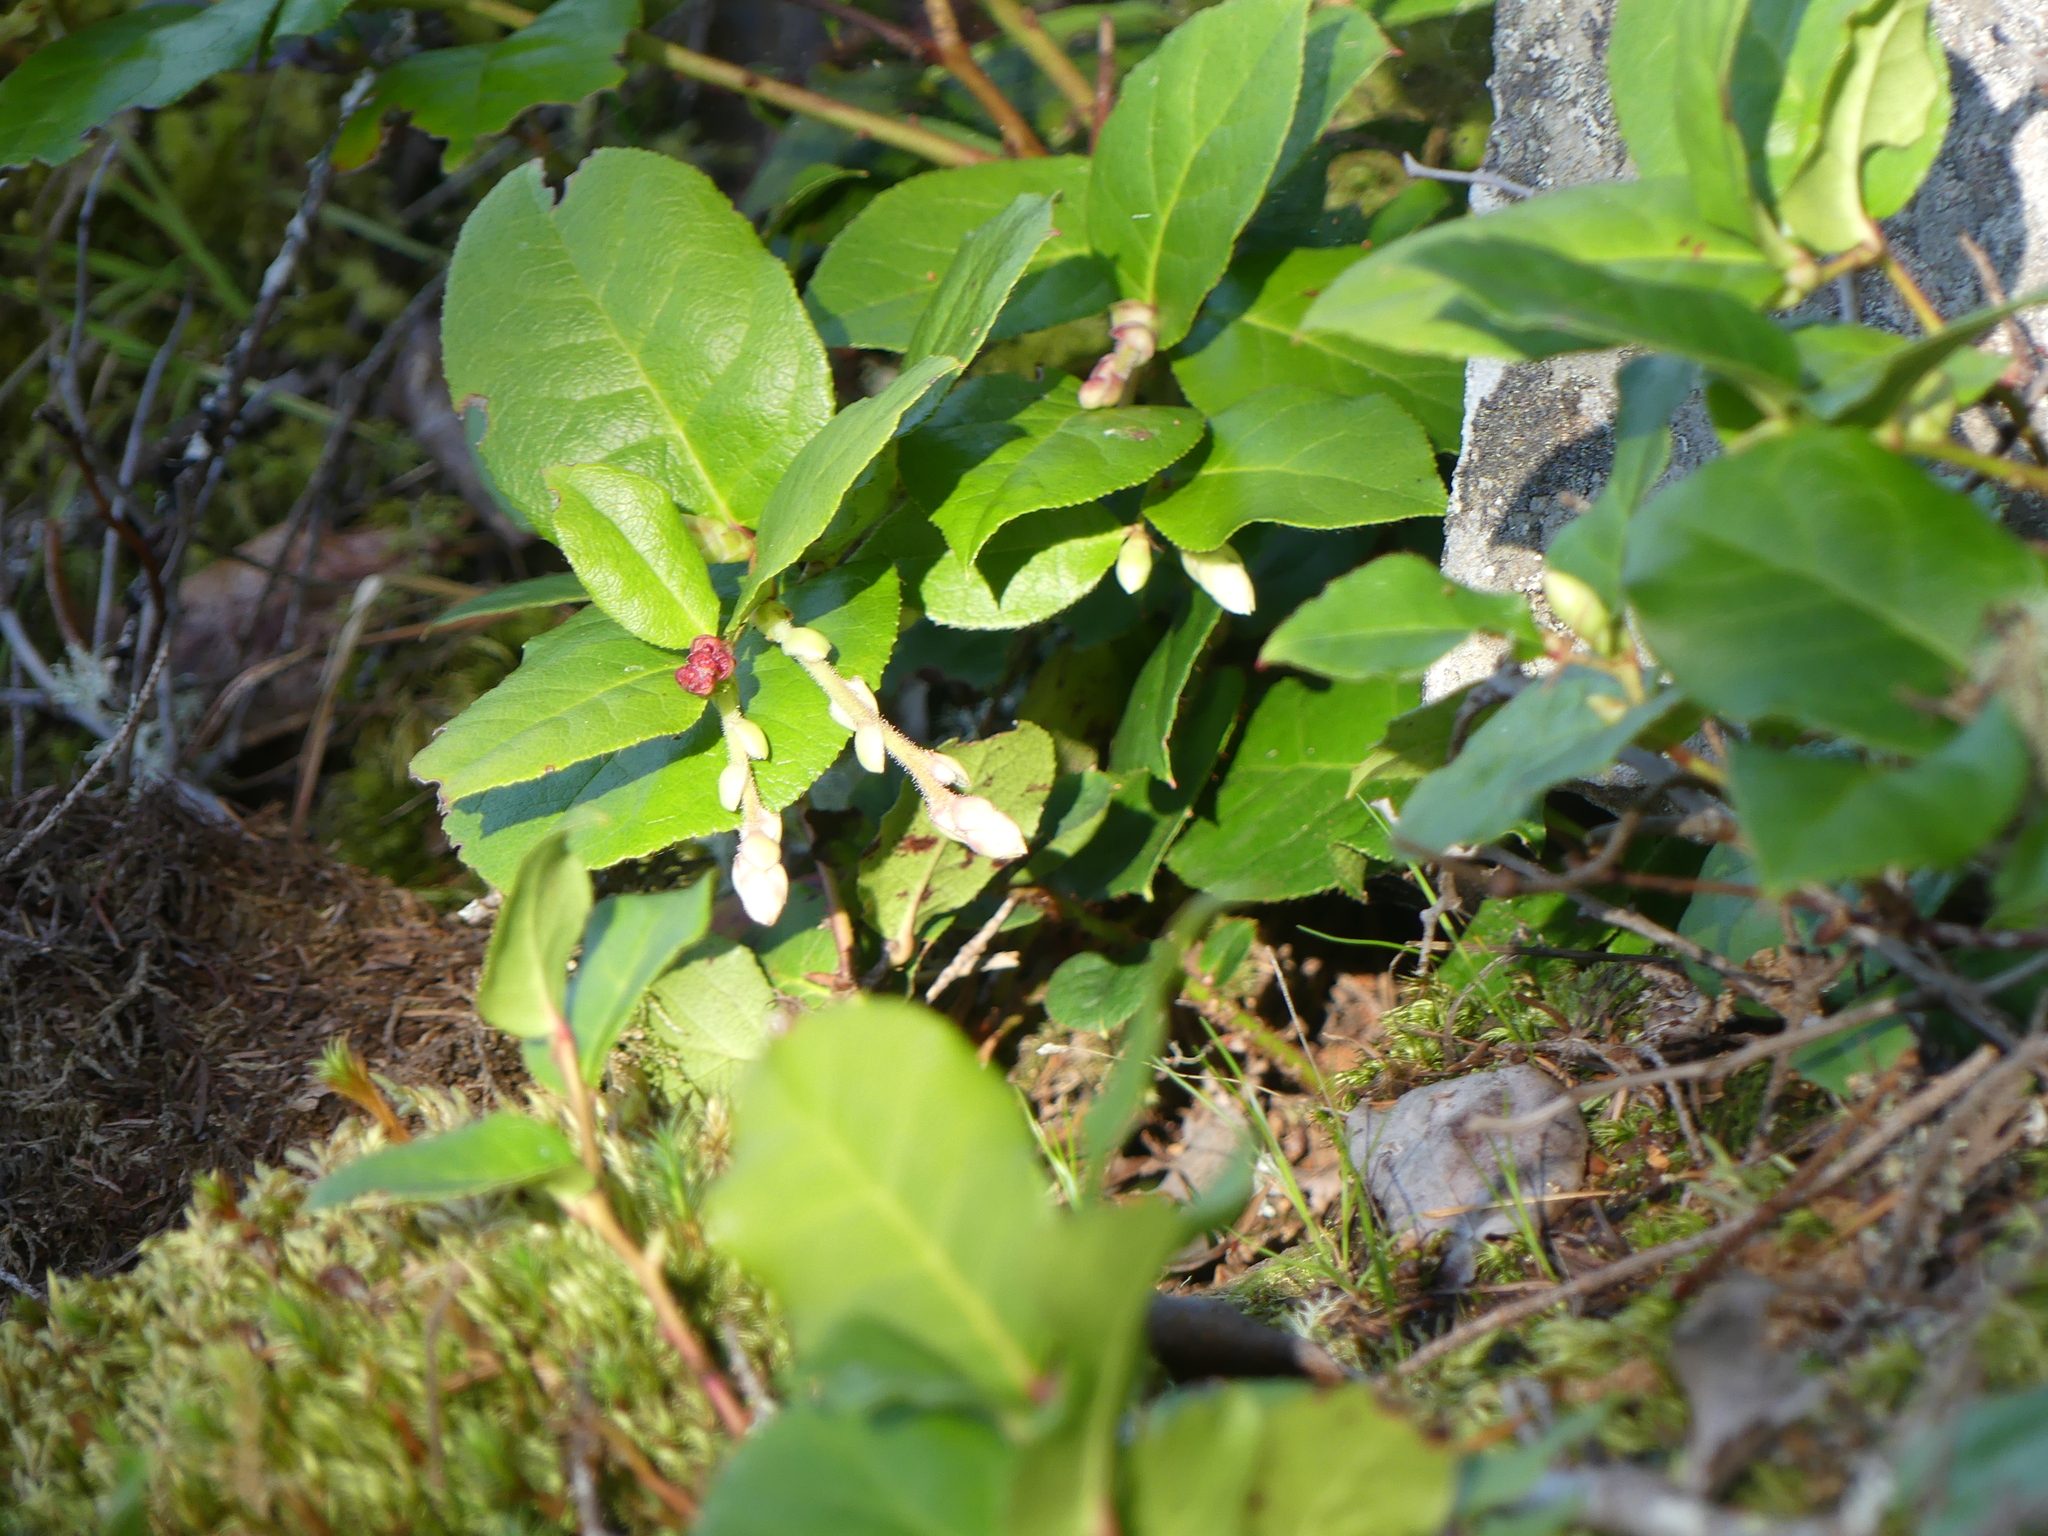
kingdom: Plantae
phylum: Tracheophyta
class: Magnoliopsida
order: Ericales
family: Ericaceae
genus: Gaultheria
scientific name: Gaultheria shallon
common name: Shallon
